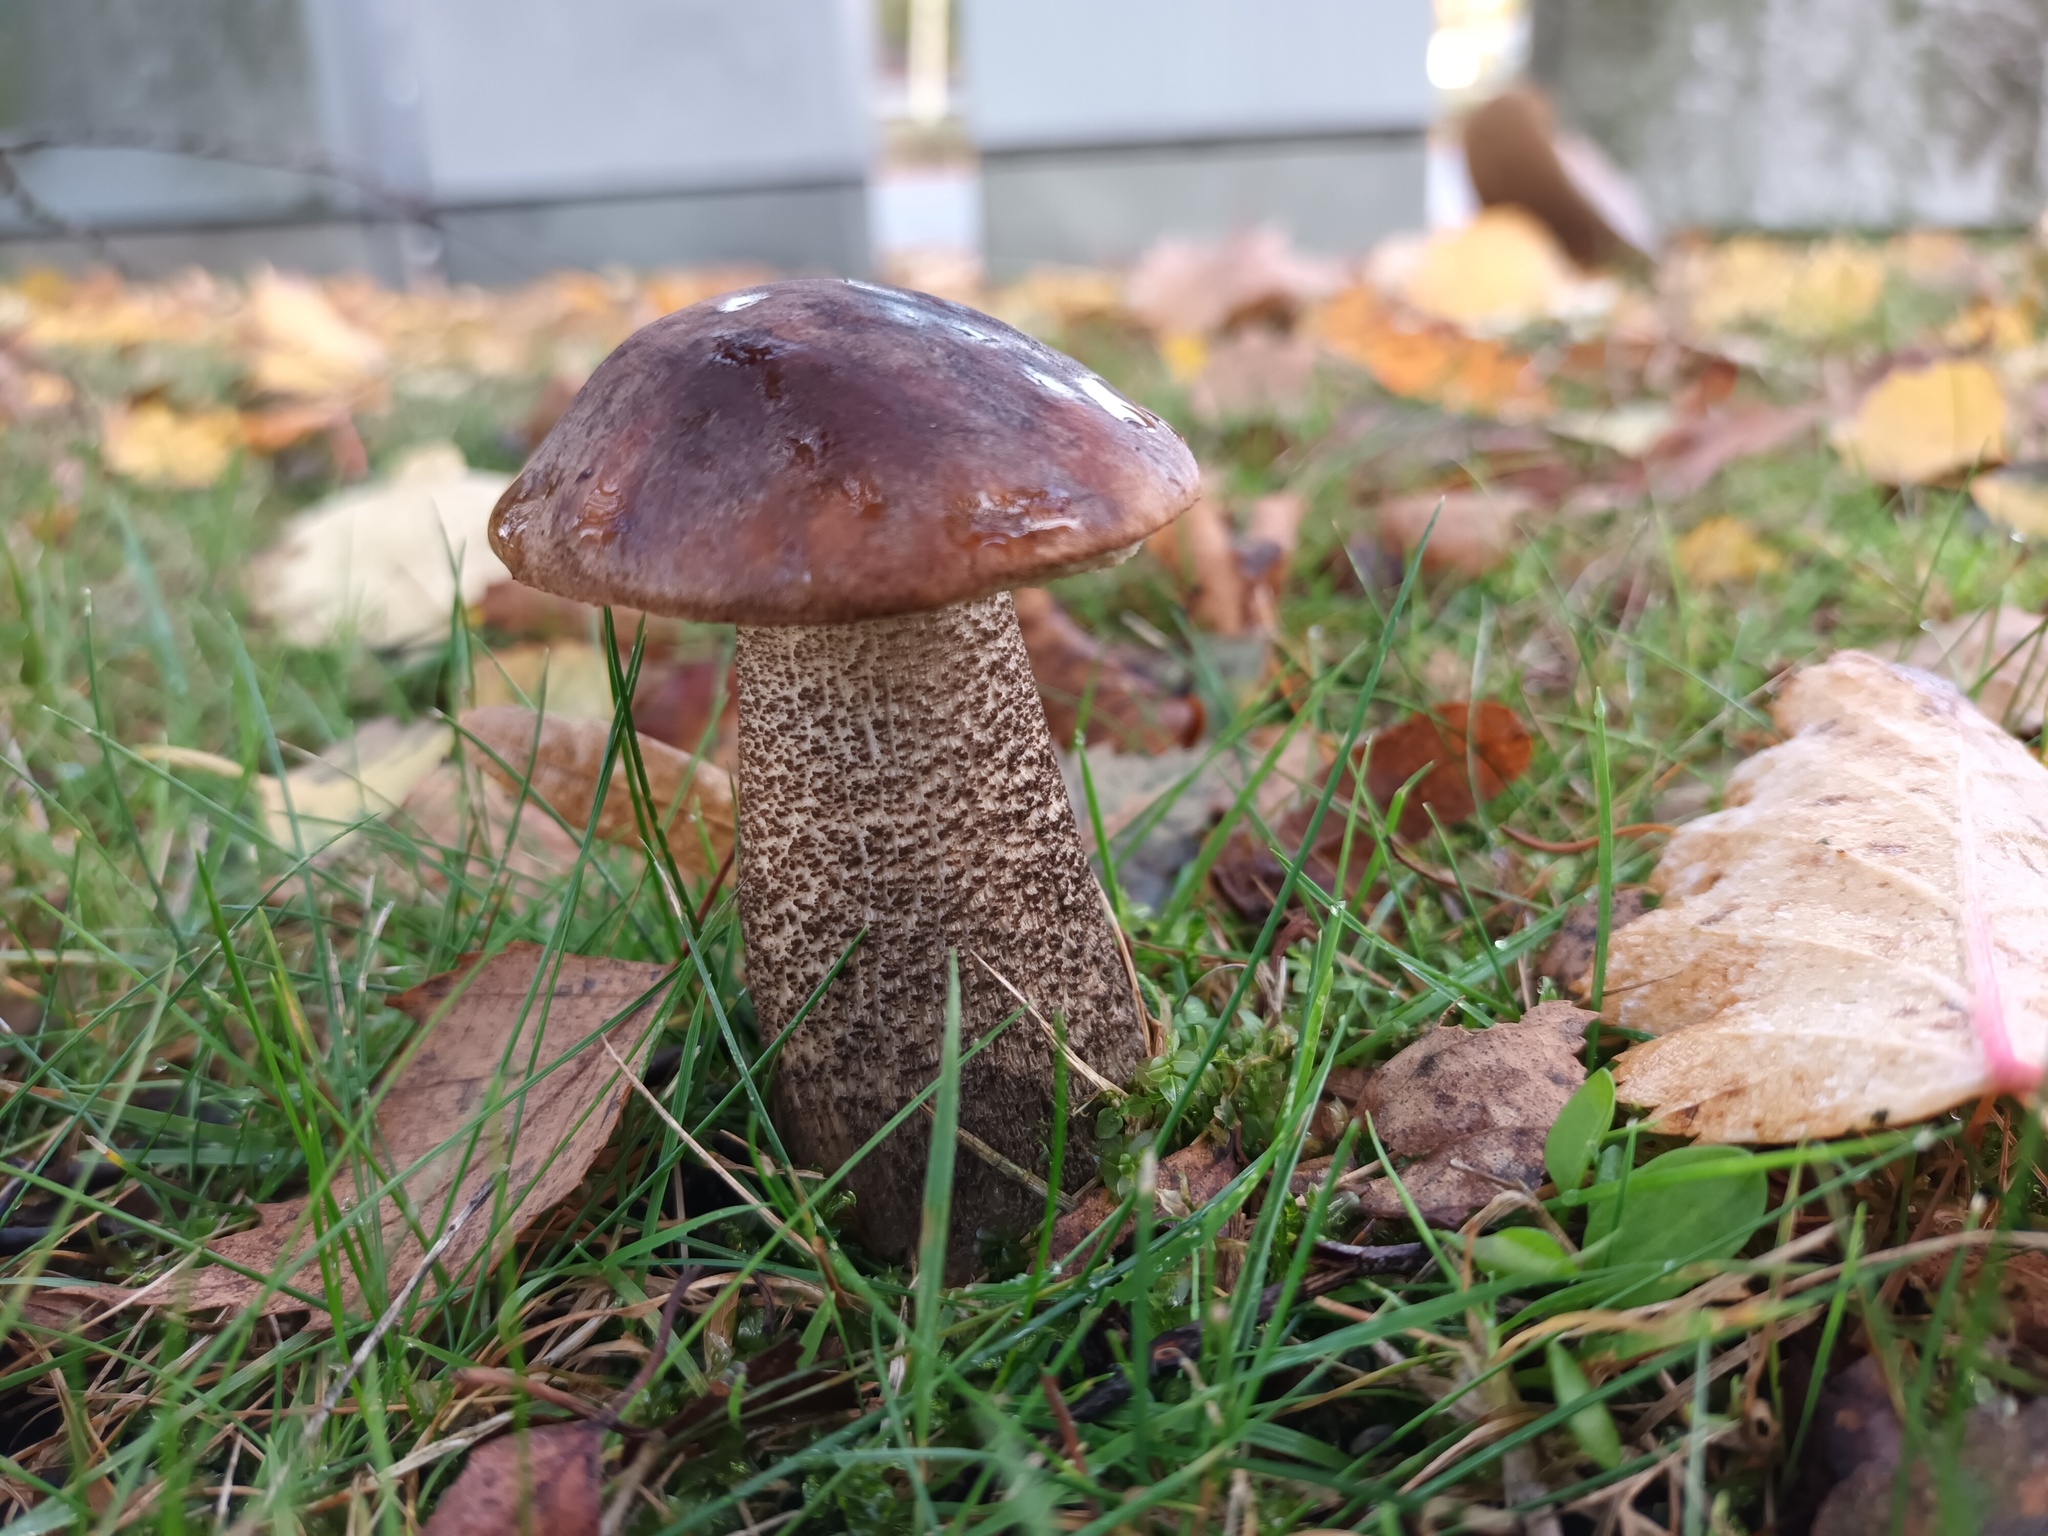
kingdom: Fungi
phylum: Basidiomycota
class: Agaricomycetes
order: Boletales
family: Boletaceae
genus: Leccinum
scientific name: Leccinum scabrum
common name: Blushing bolete
